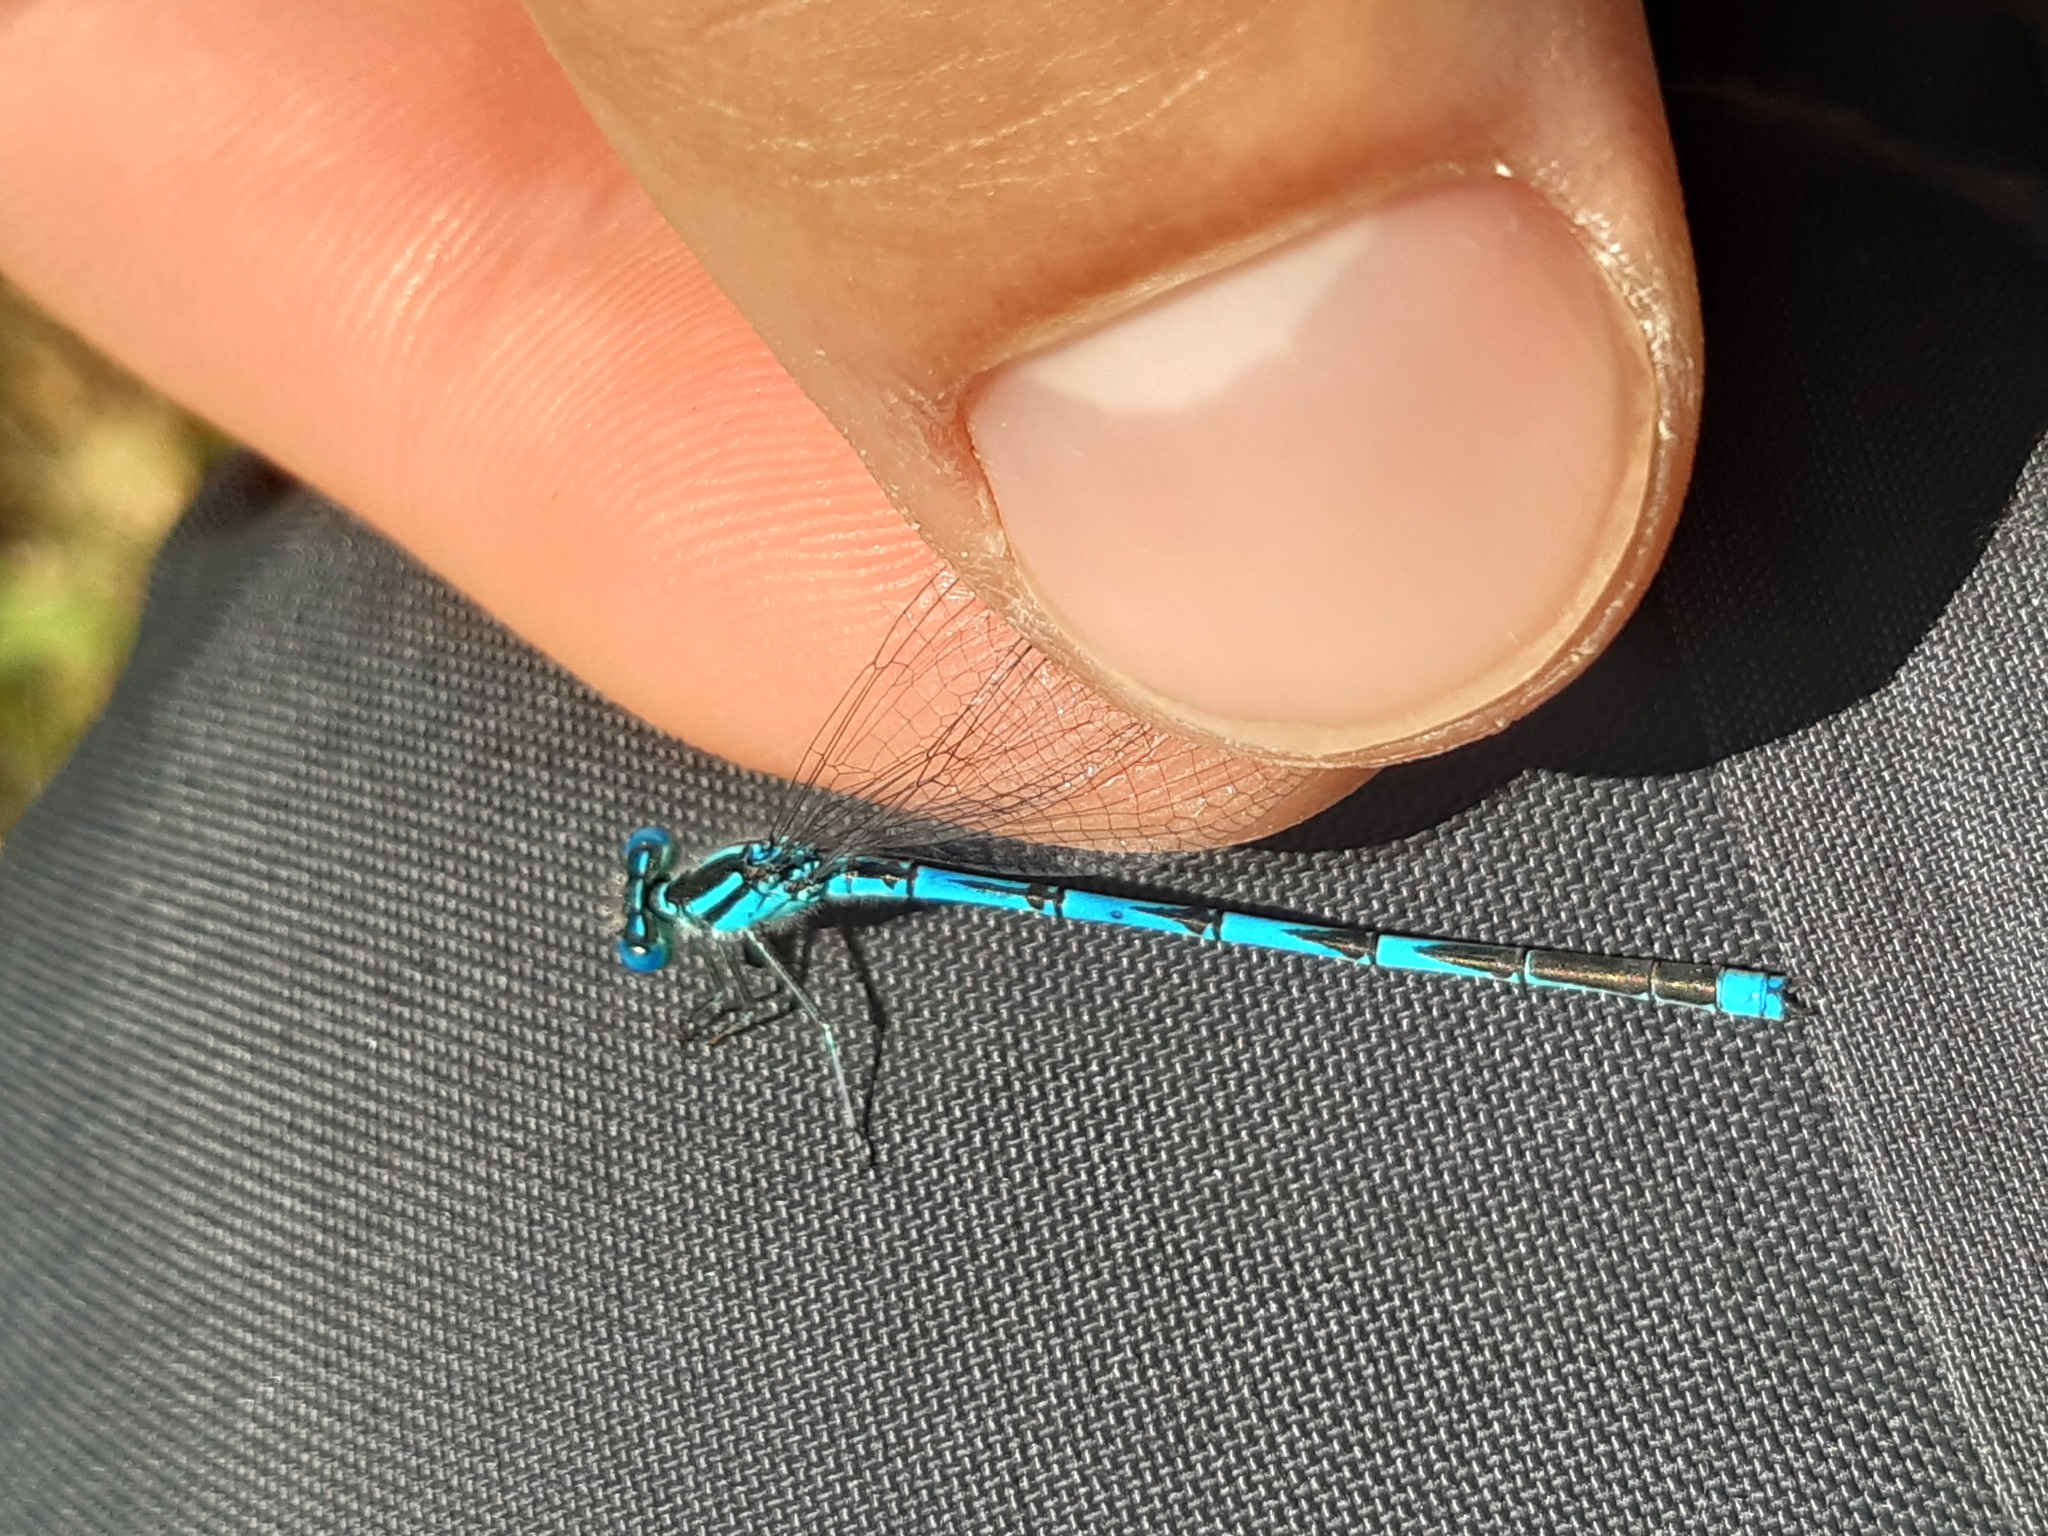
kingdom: Animalia
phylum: Arthropoda
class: Insecta
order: Odonata
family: Coenagrionidae
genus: Erythromma
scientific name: Erythromma lindenii
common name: Blue-eye
